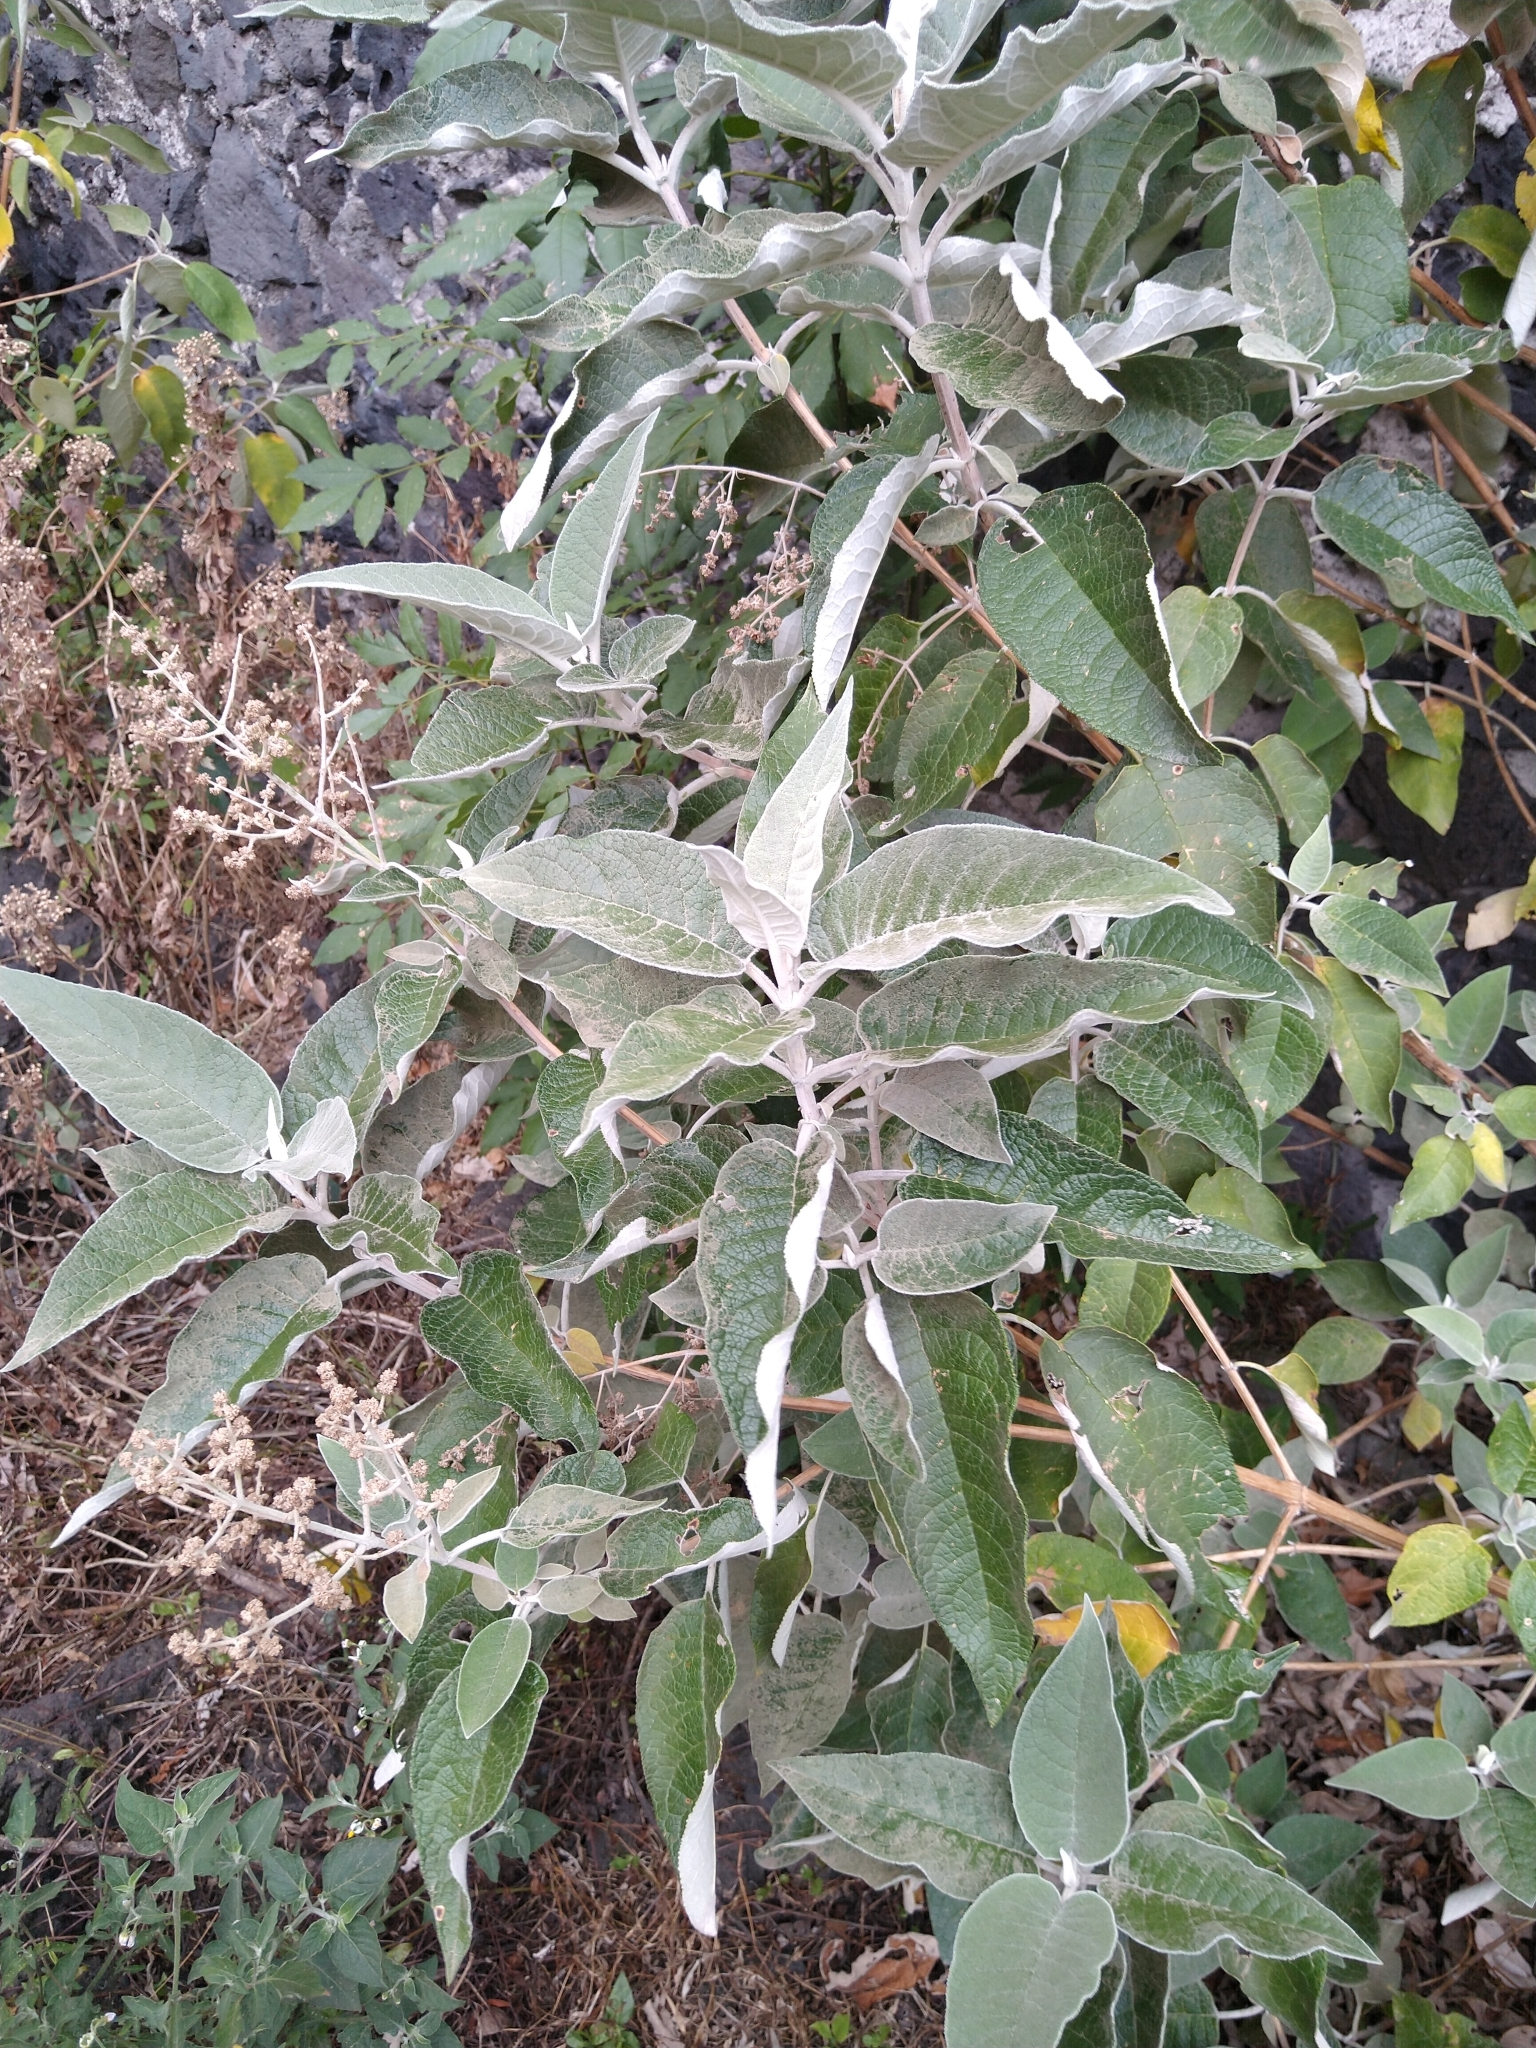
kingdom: Plantae
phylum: Tracheophyta
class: Magnoliopsida
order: Lamiales
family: Scrophulariaceae
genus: Buddleja
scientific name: Buddleja cordata
